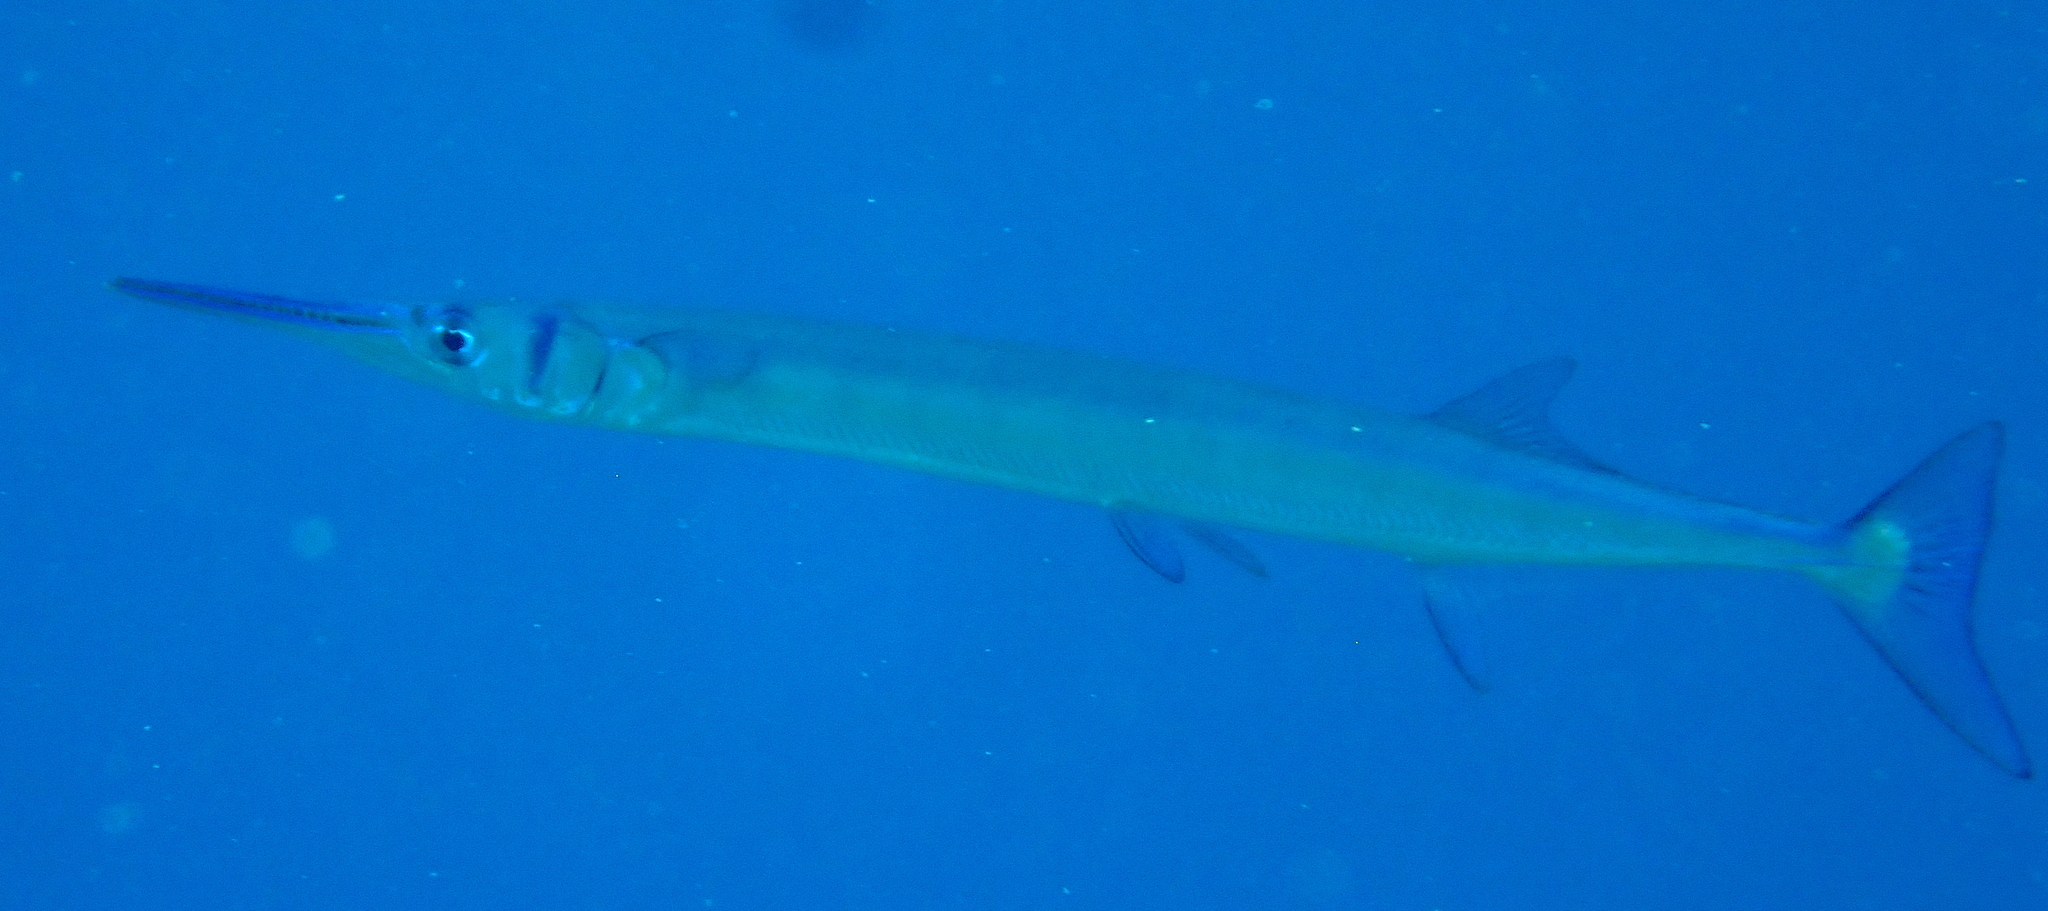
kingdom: Animalia
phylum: Chordata
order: Beloniformes
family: Belonidae
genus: Tylosurus
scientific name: Tylosurus crocodilus
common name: Houndfish
